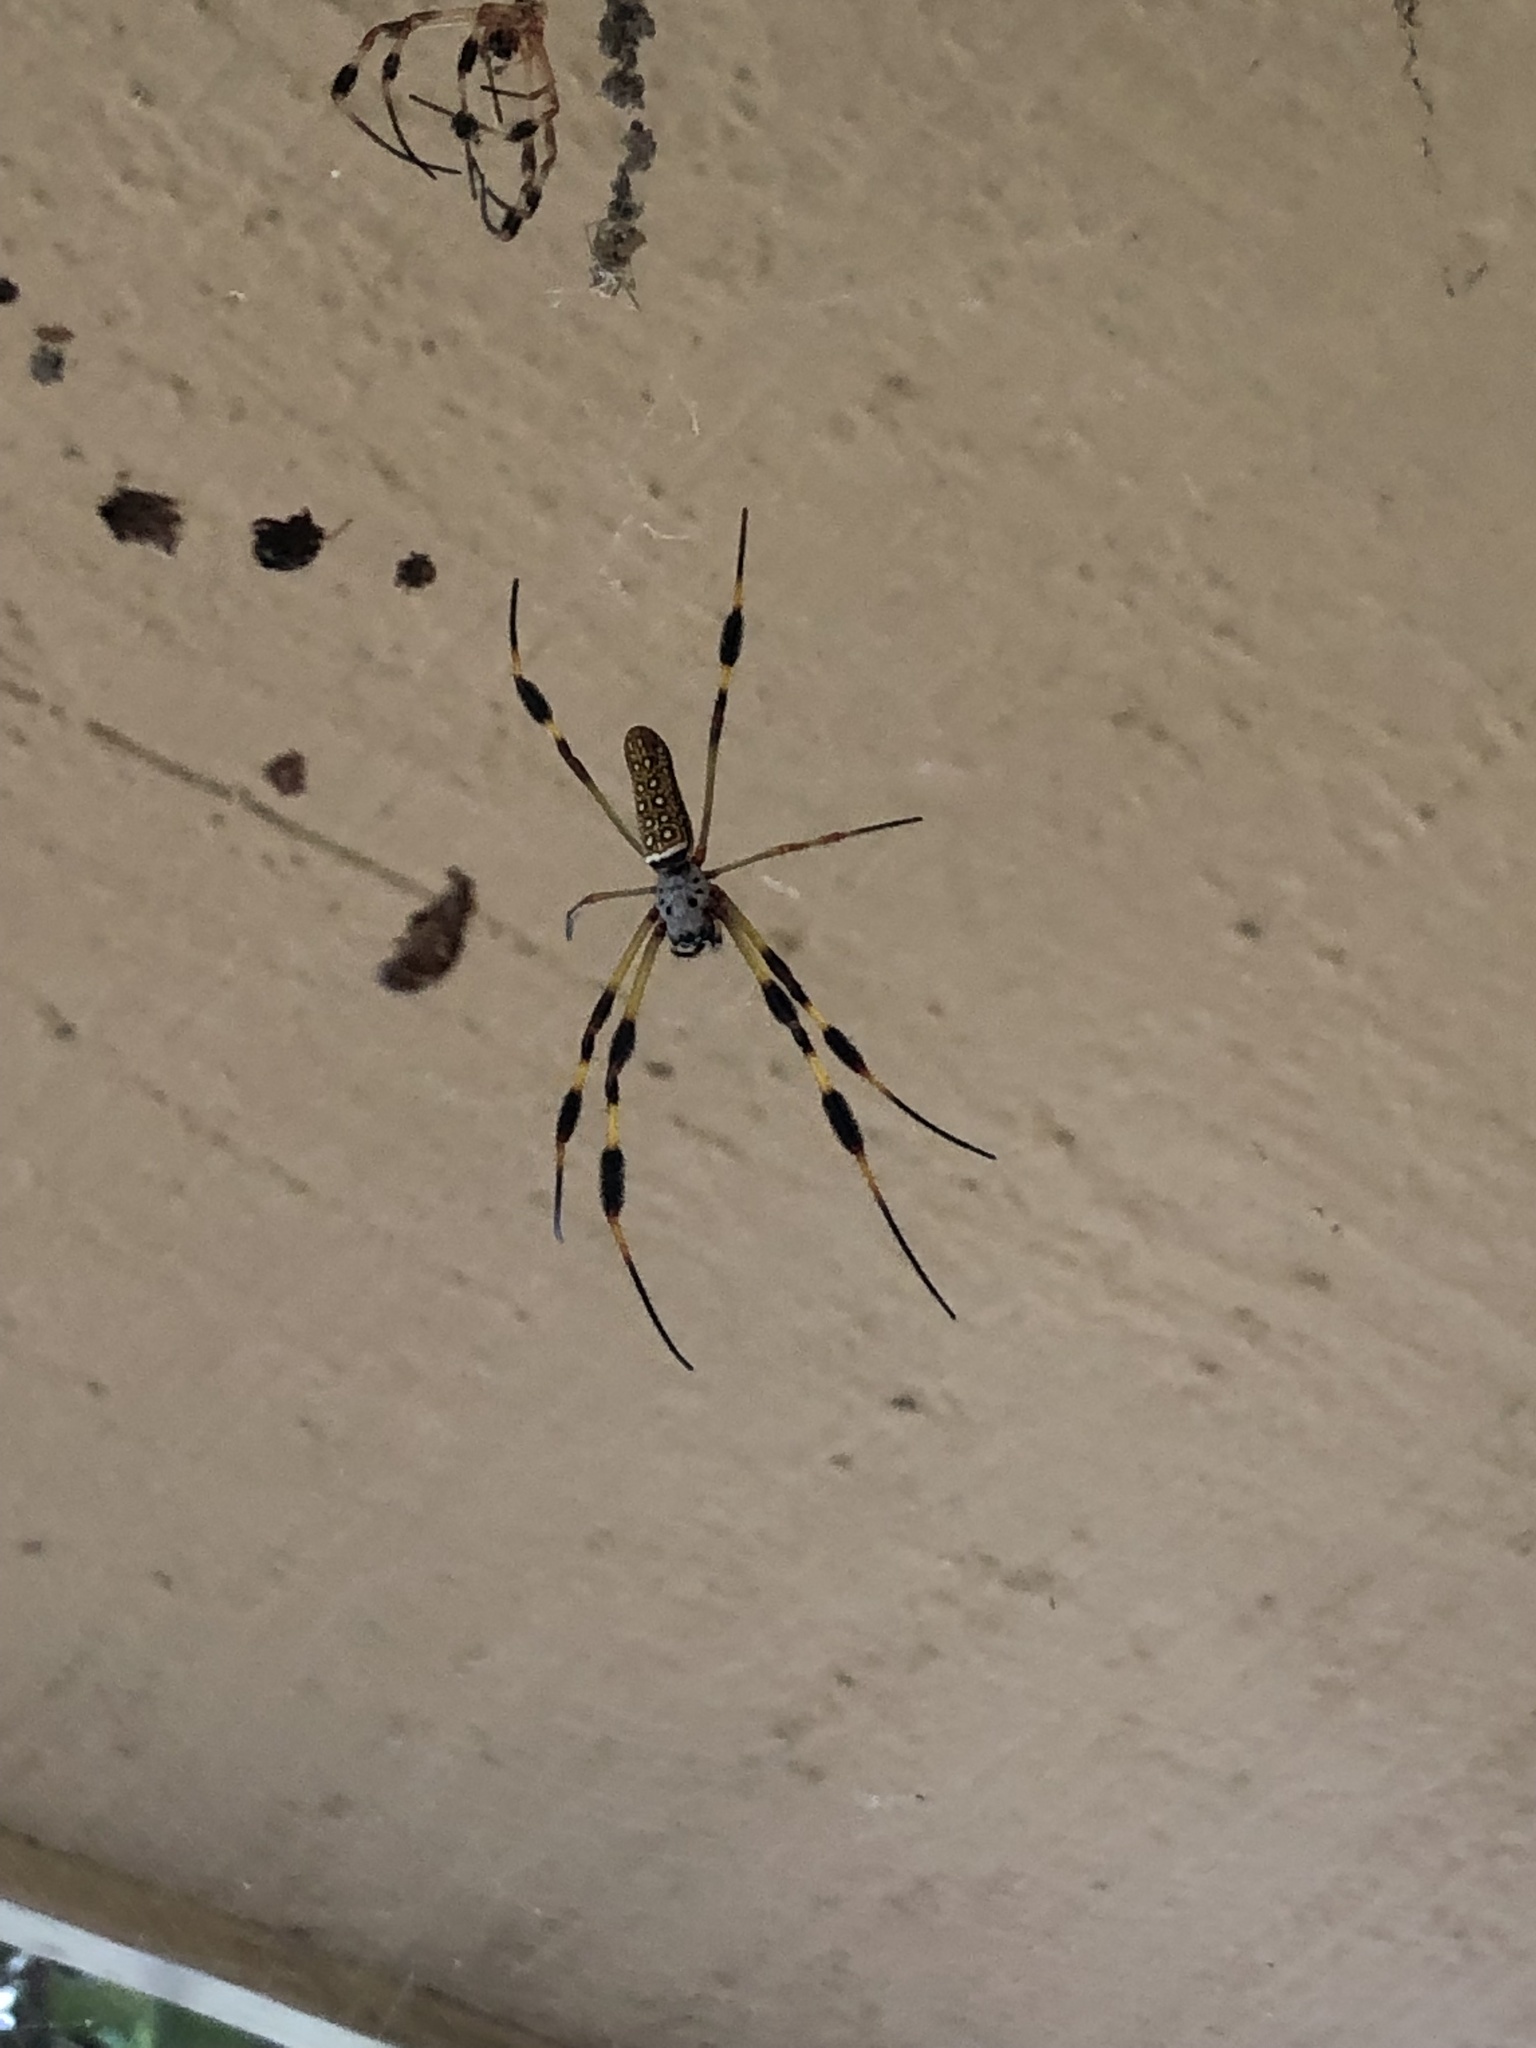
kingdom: Animalia
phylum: Arthropoda
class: Arachnida
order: Araneae
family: Araneidae
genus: Trichonephila
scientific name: Trichonephila clavipes
